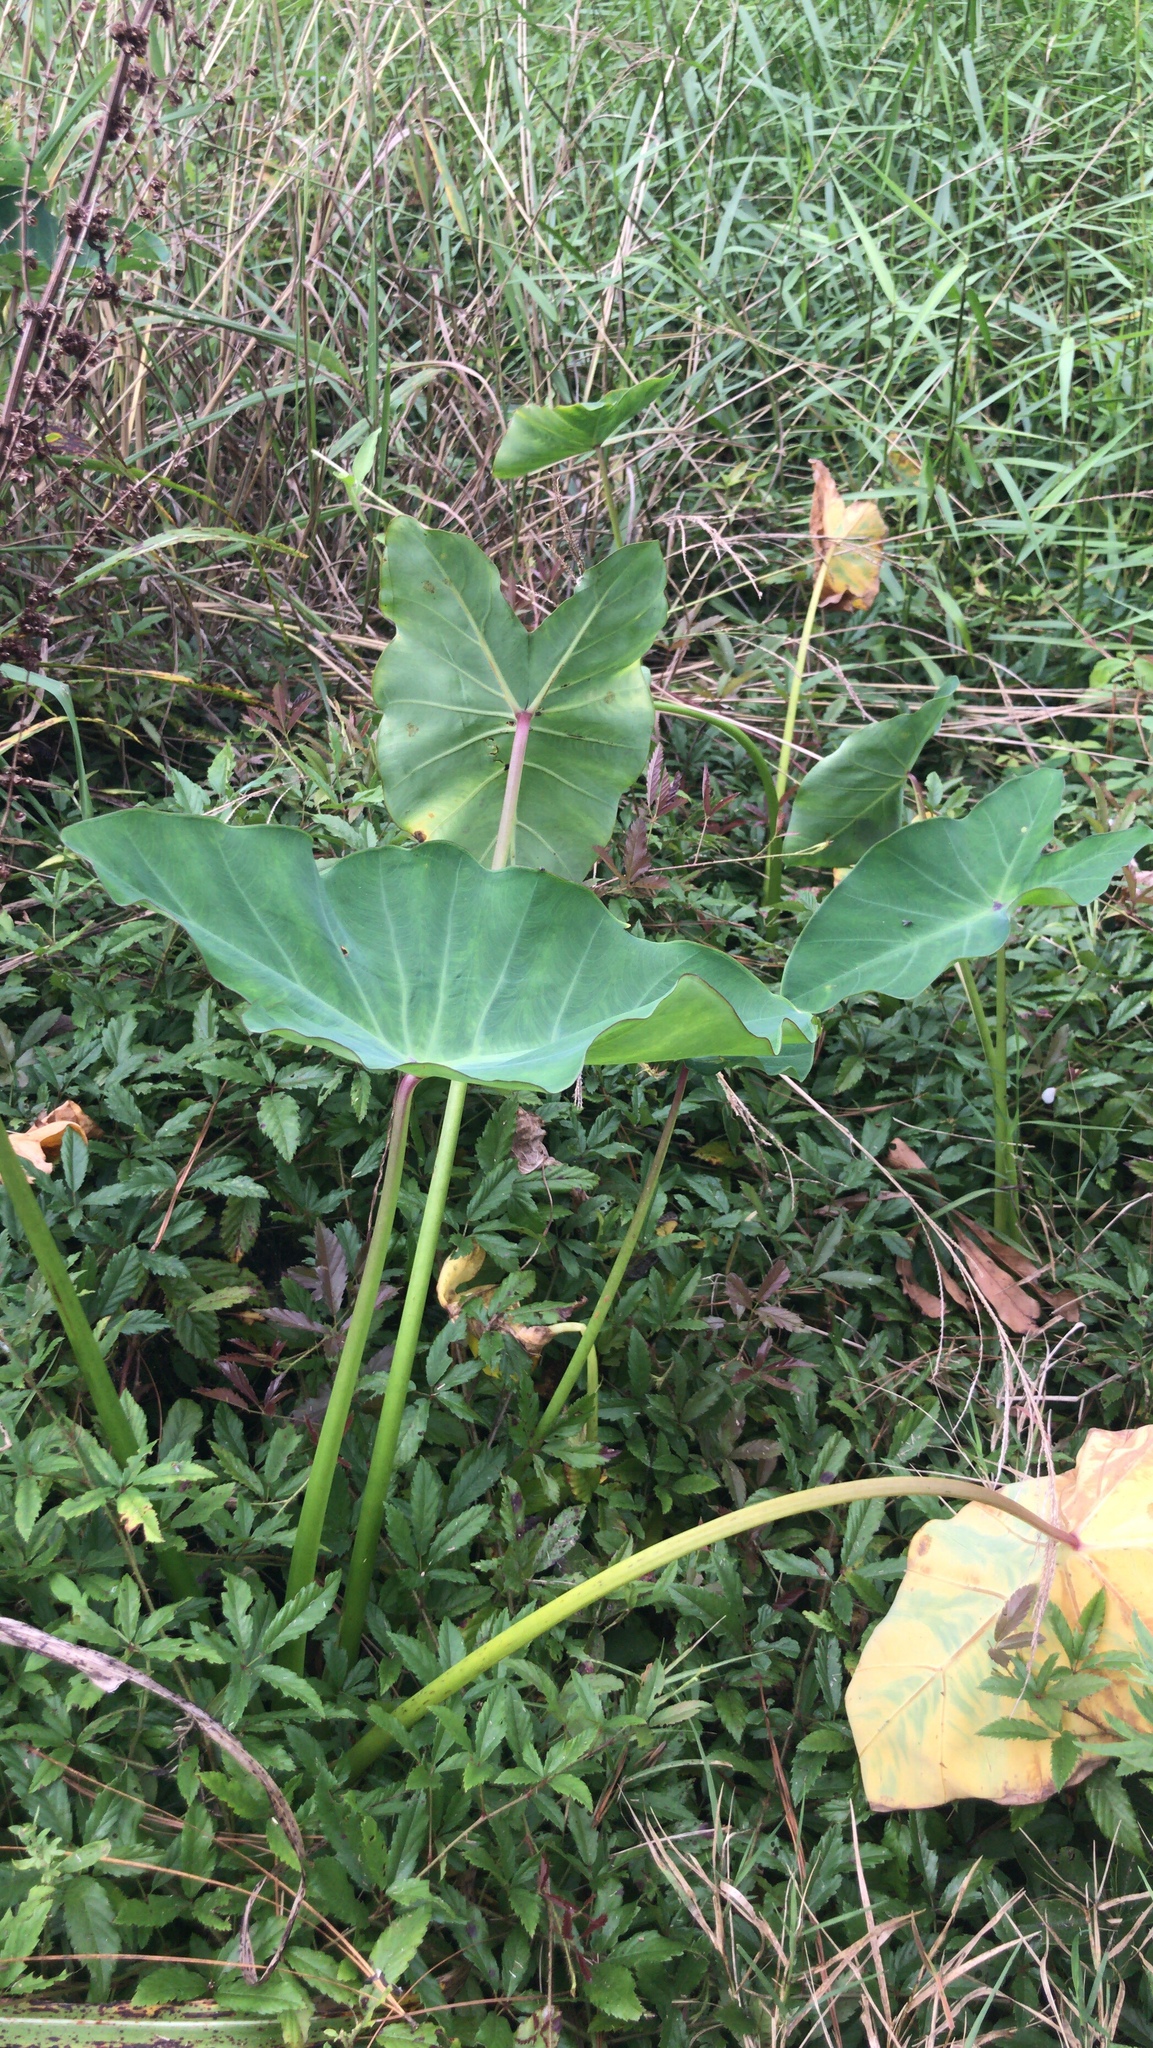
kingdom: Plantae
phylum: Tracheophyta
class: Liliopsida
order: Alismatales
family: Araceae
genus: Colocasia
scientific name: Colocasia esculenta
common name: Taro
